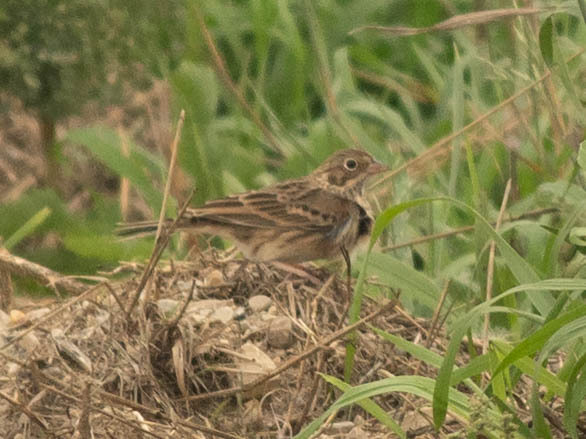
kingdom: Animalia
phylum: Chordata
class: Aves
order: Passeriformes
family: Passerellidae
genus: Pooecetes
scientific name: Pooecetes gramineus
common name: Vesper sparrow
